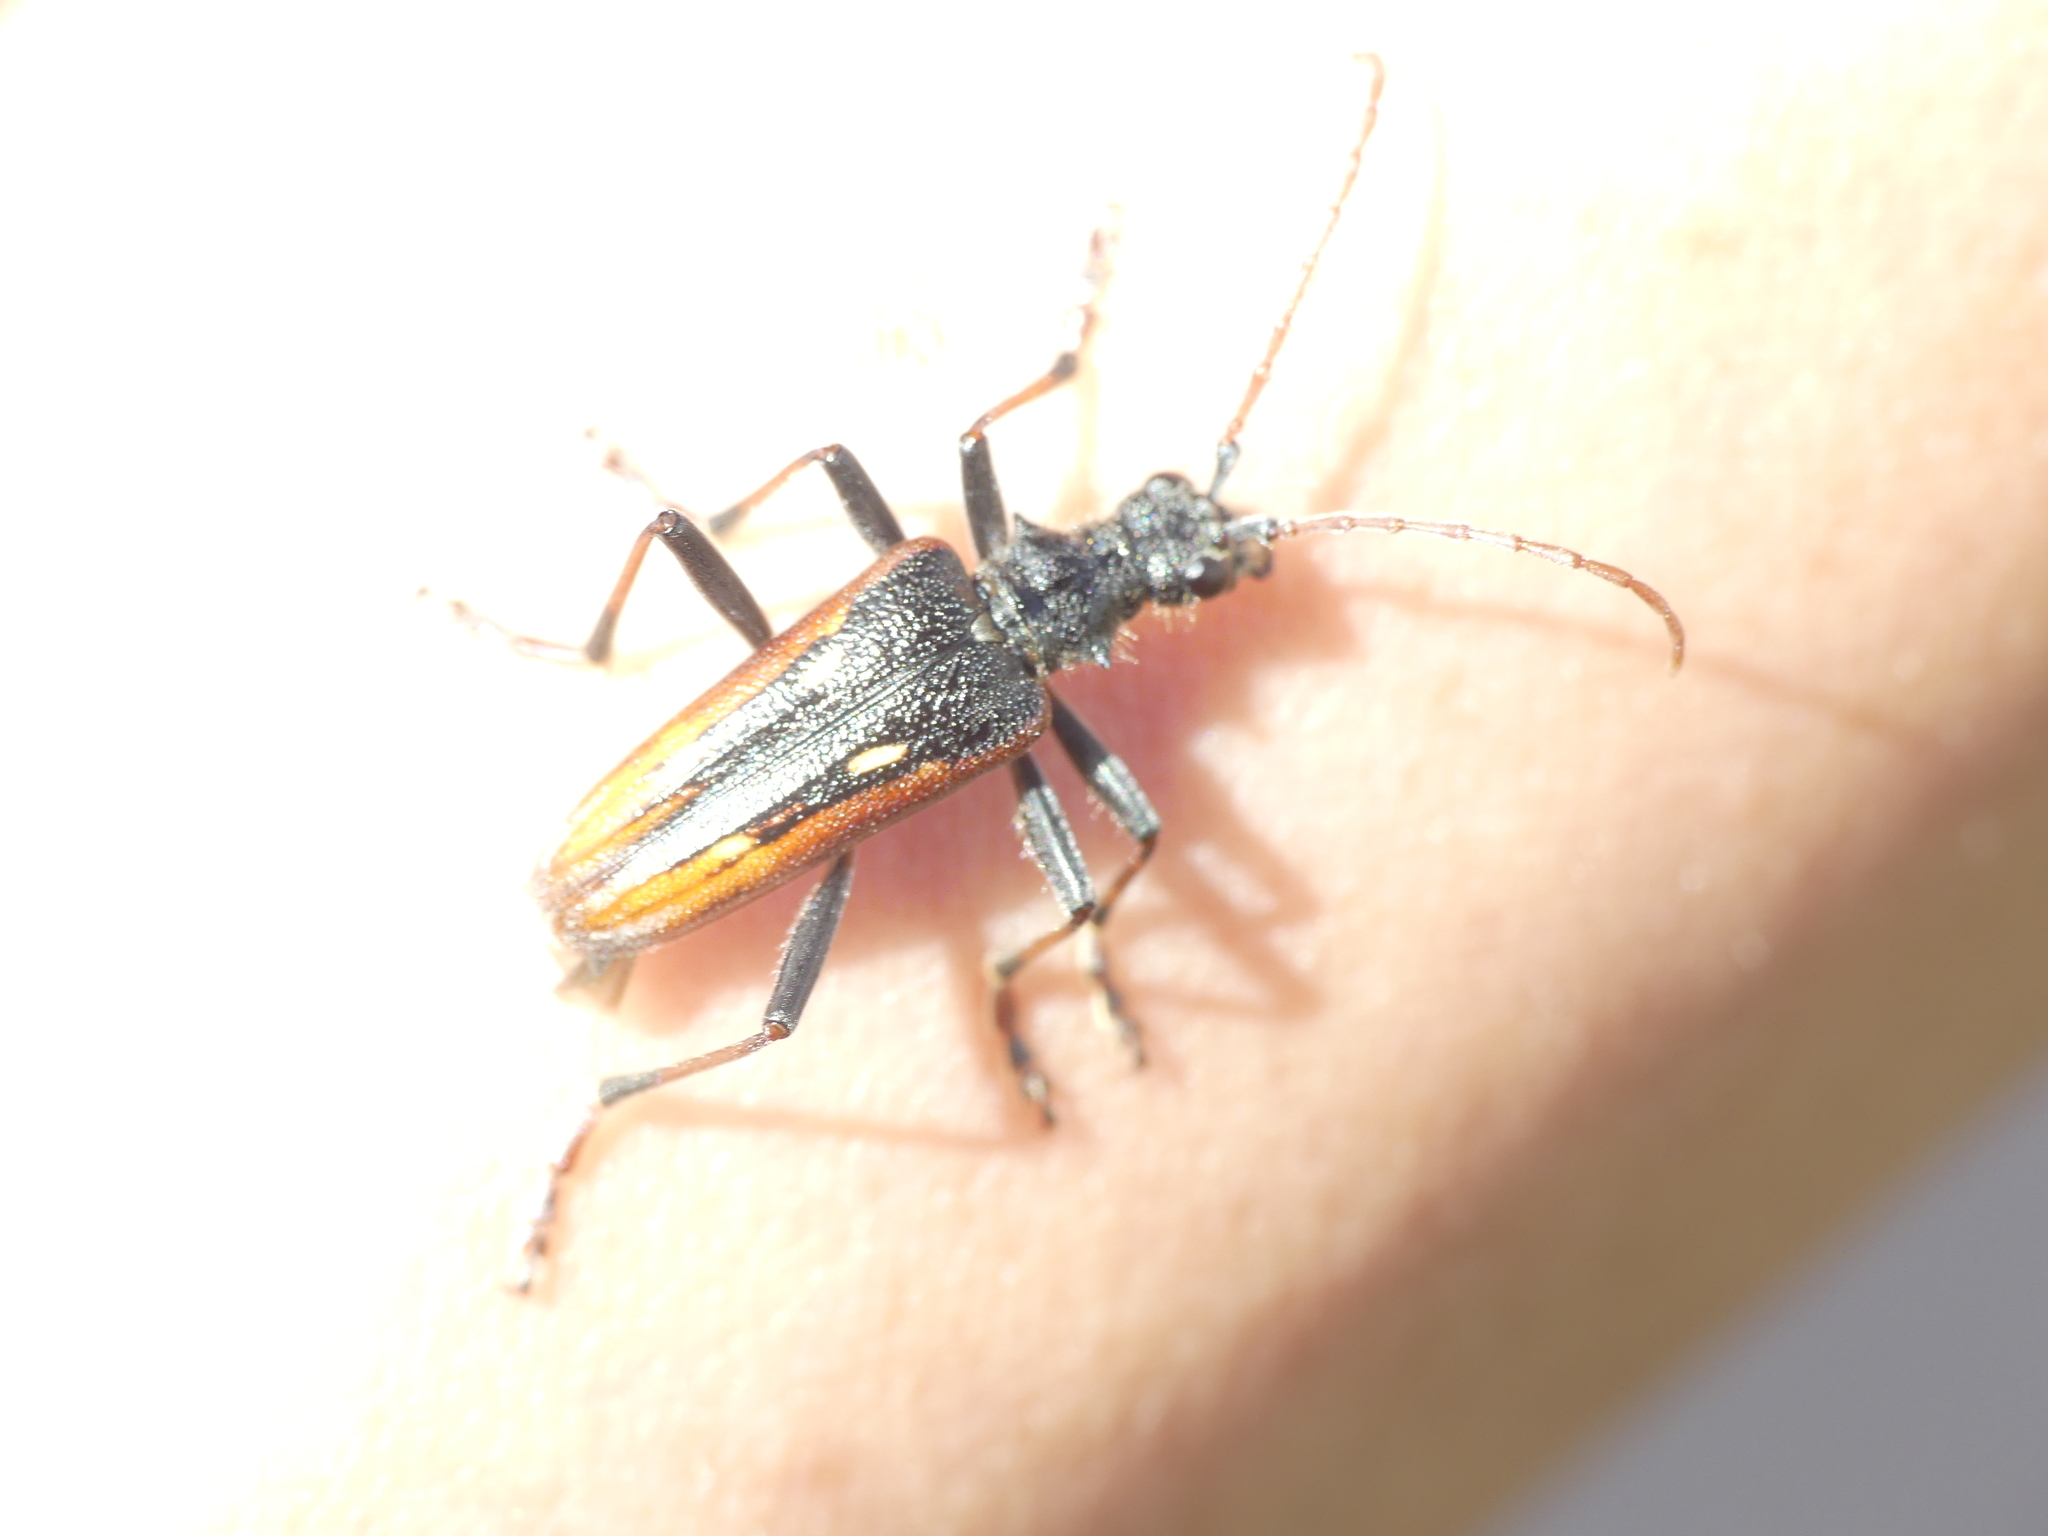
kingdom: Animalia
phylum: Arthropoda
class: Insecta
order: Coleoptera
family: Cerambycidae
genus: Rhagium
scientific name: Rhagium bifasciatum
